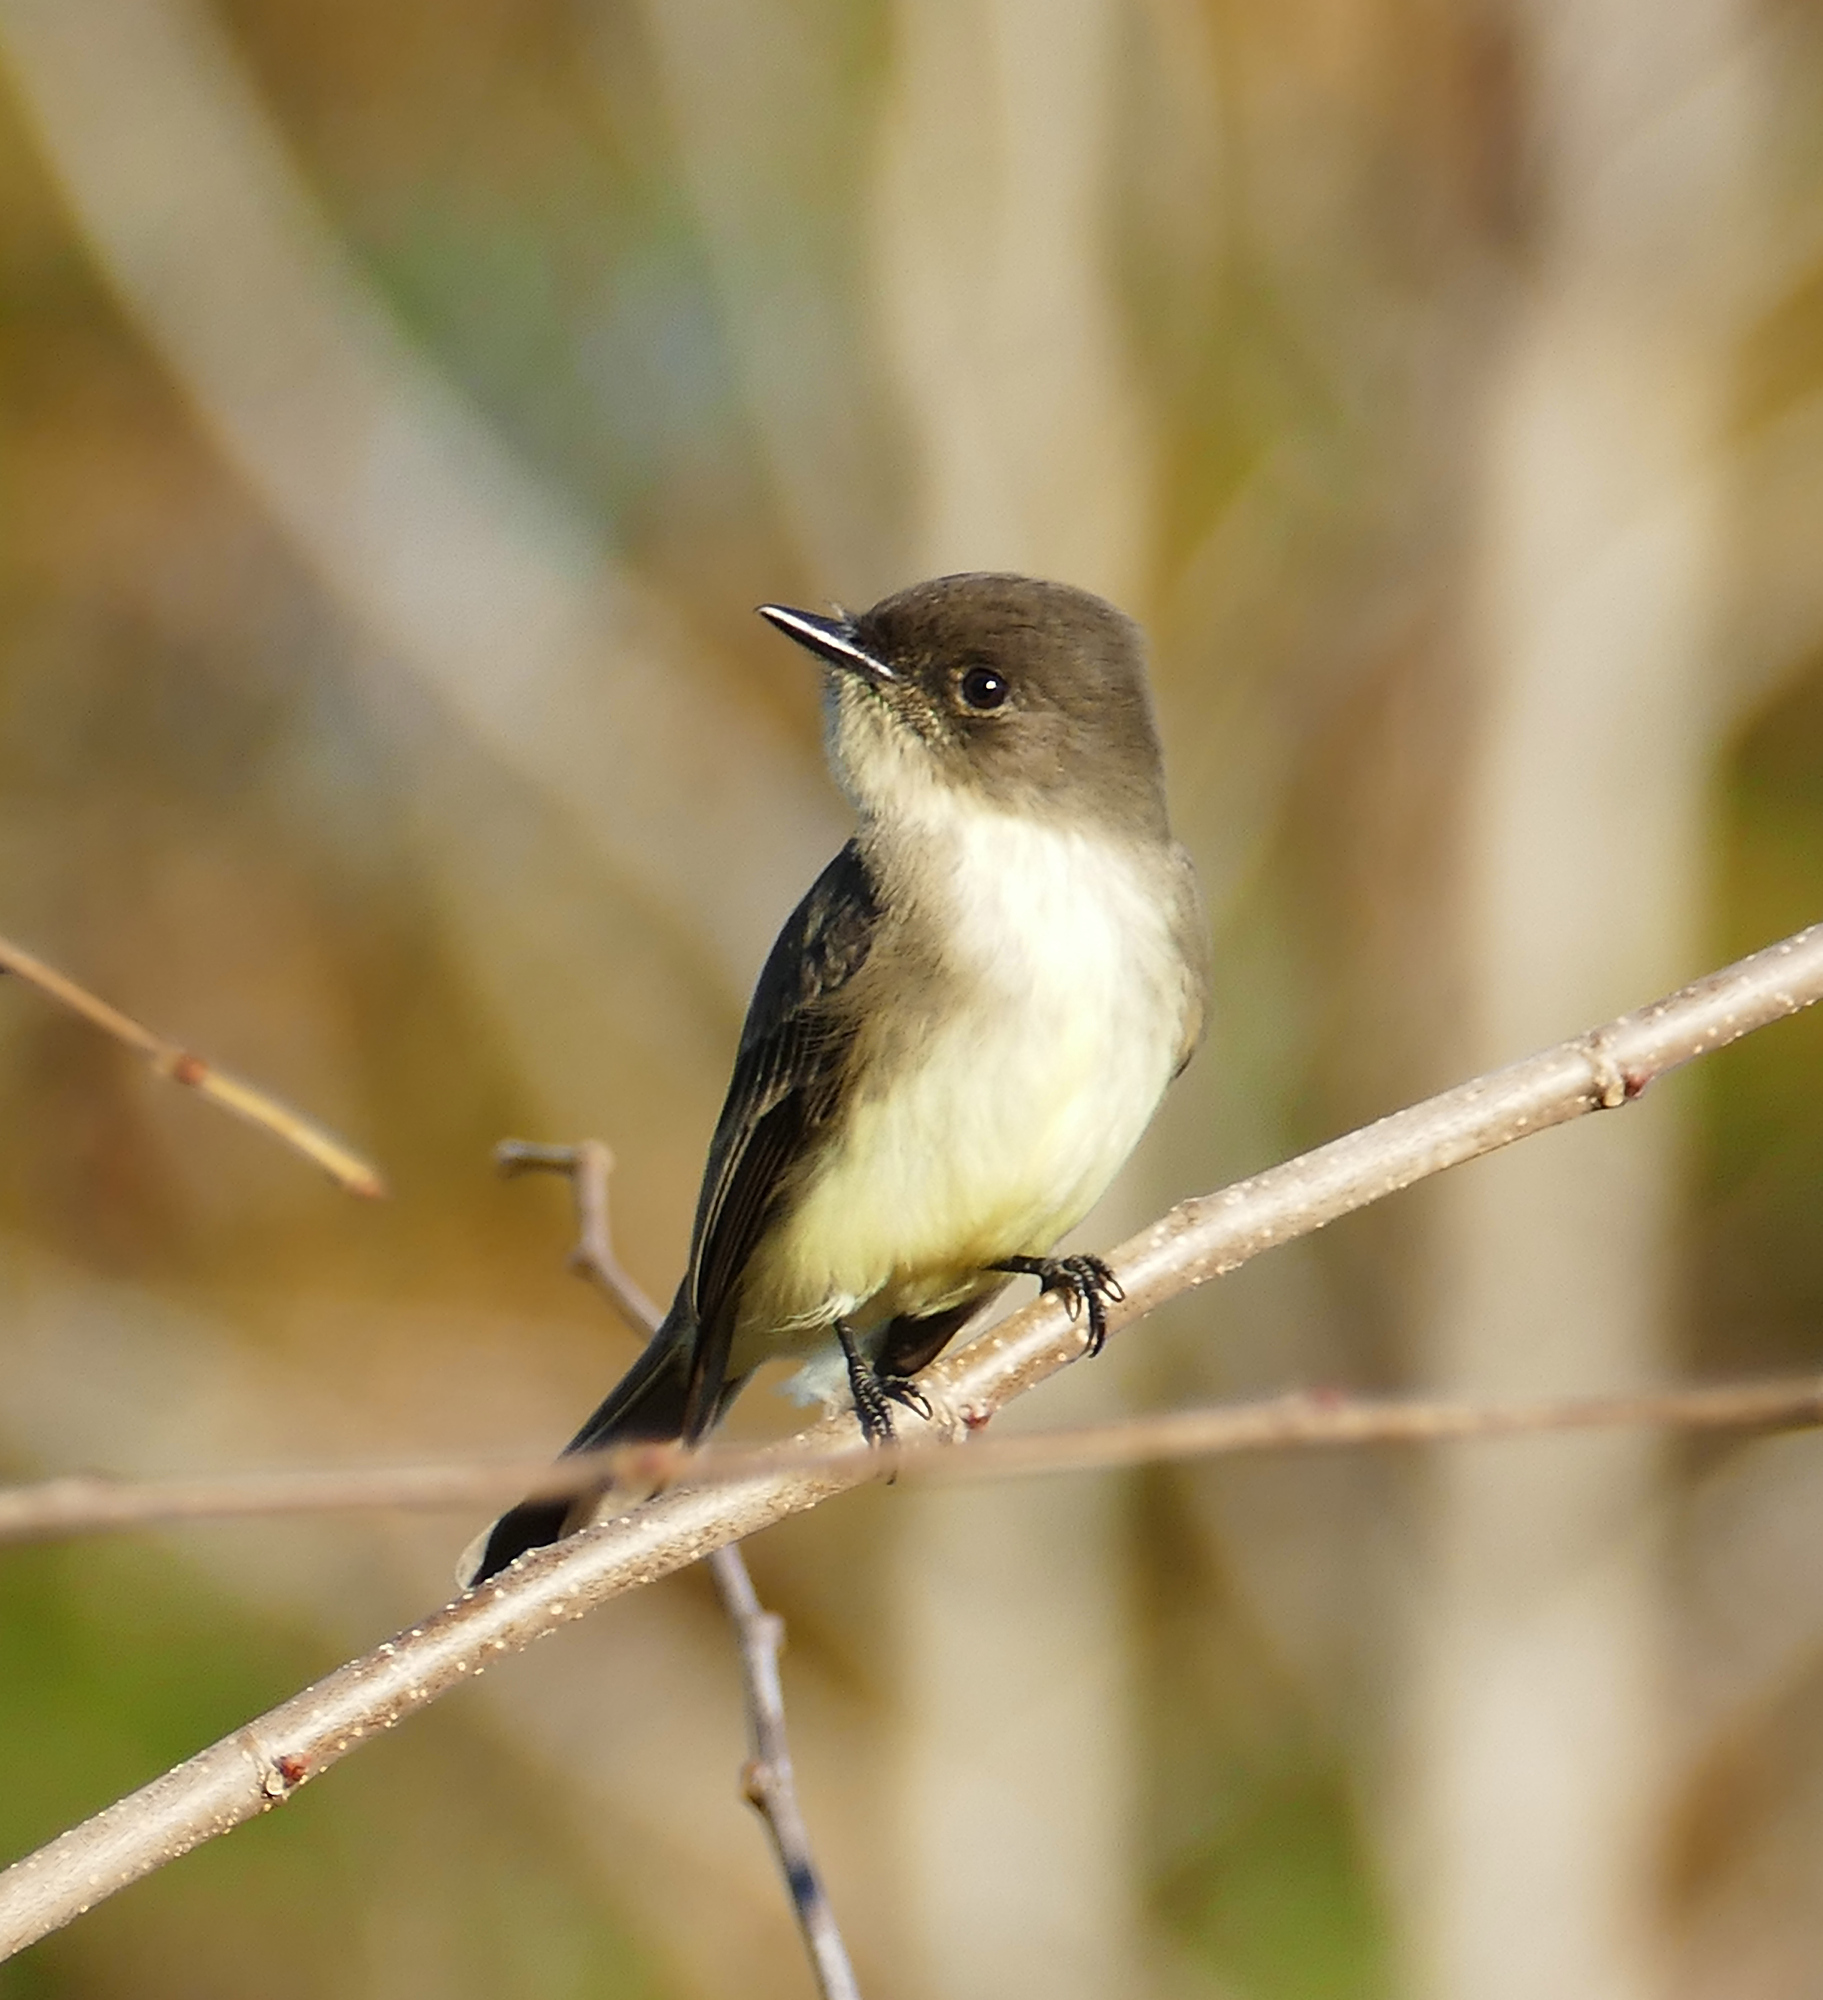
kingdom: Animalia
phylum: Chordata
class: Aves
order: Passeriformes
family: Tyrannidae
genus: Sayornis
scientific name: Sayornis phoebe
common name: Eastern phoebe
